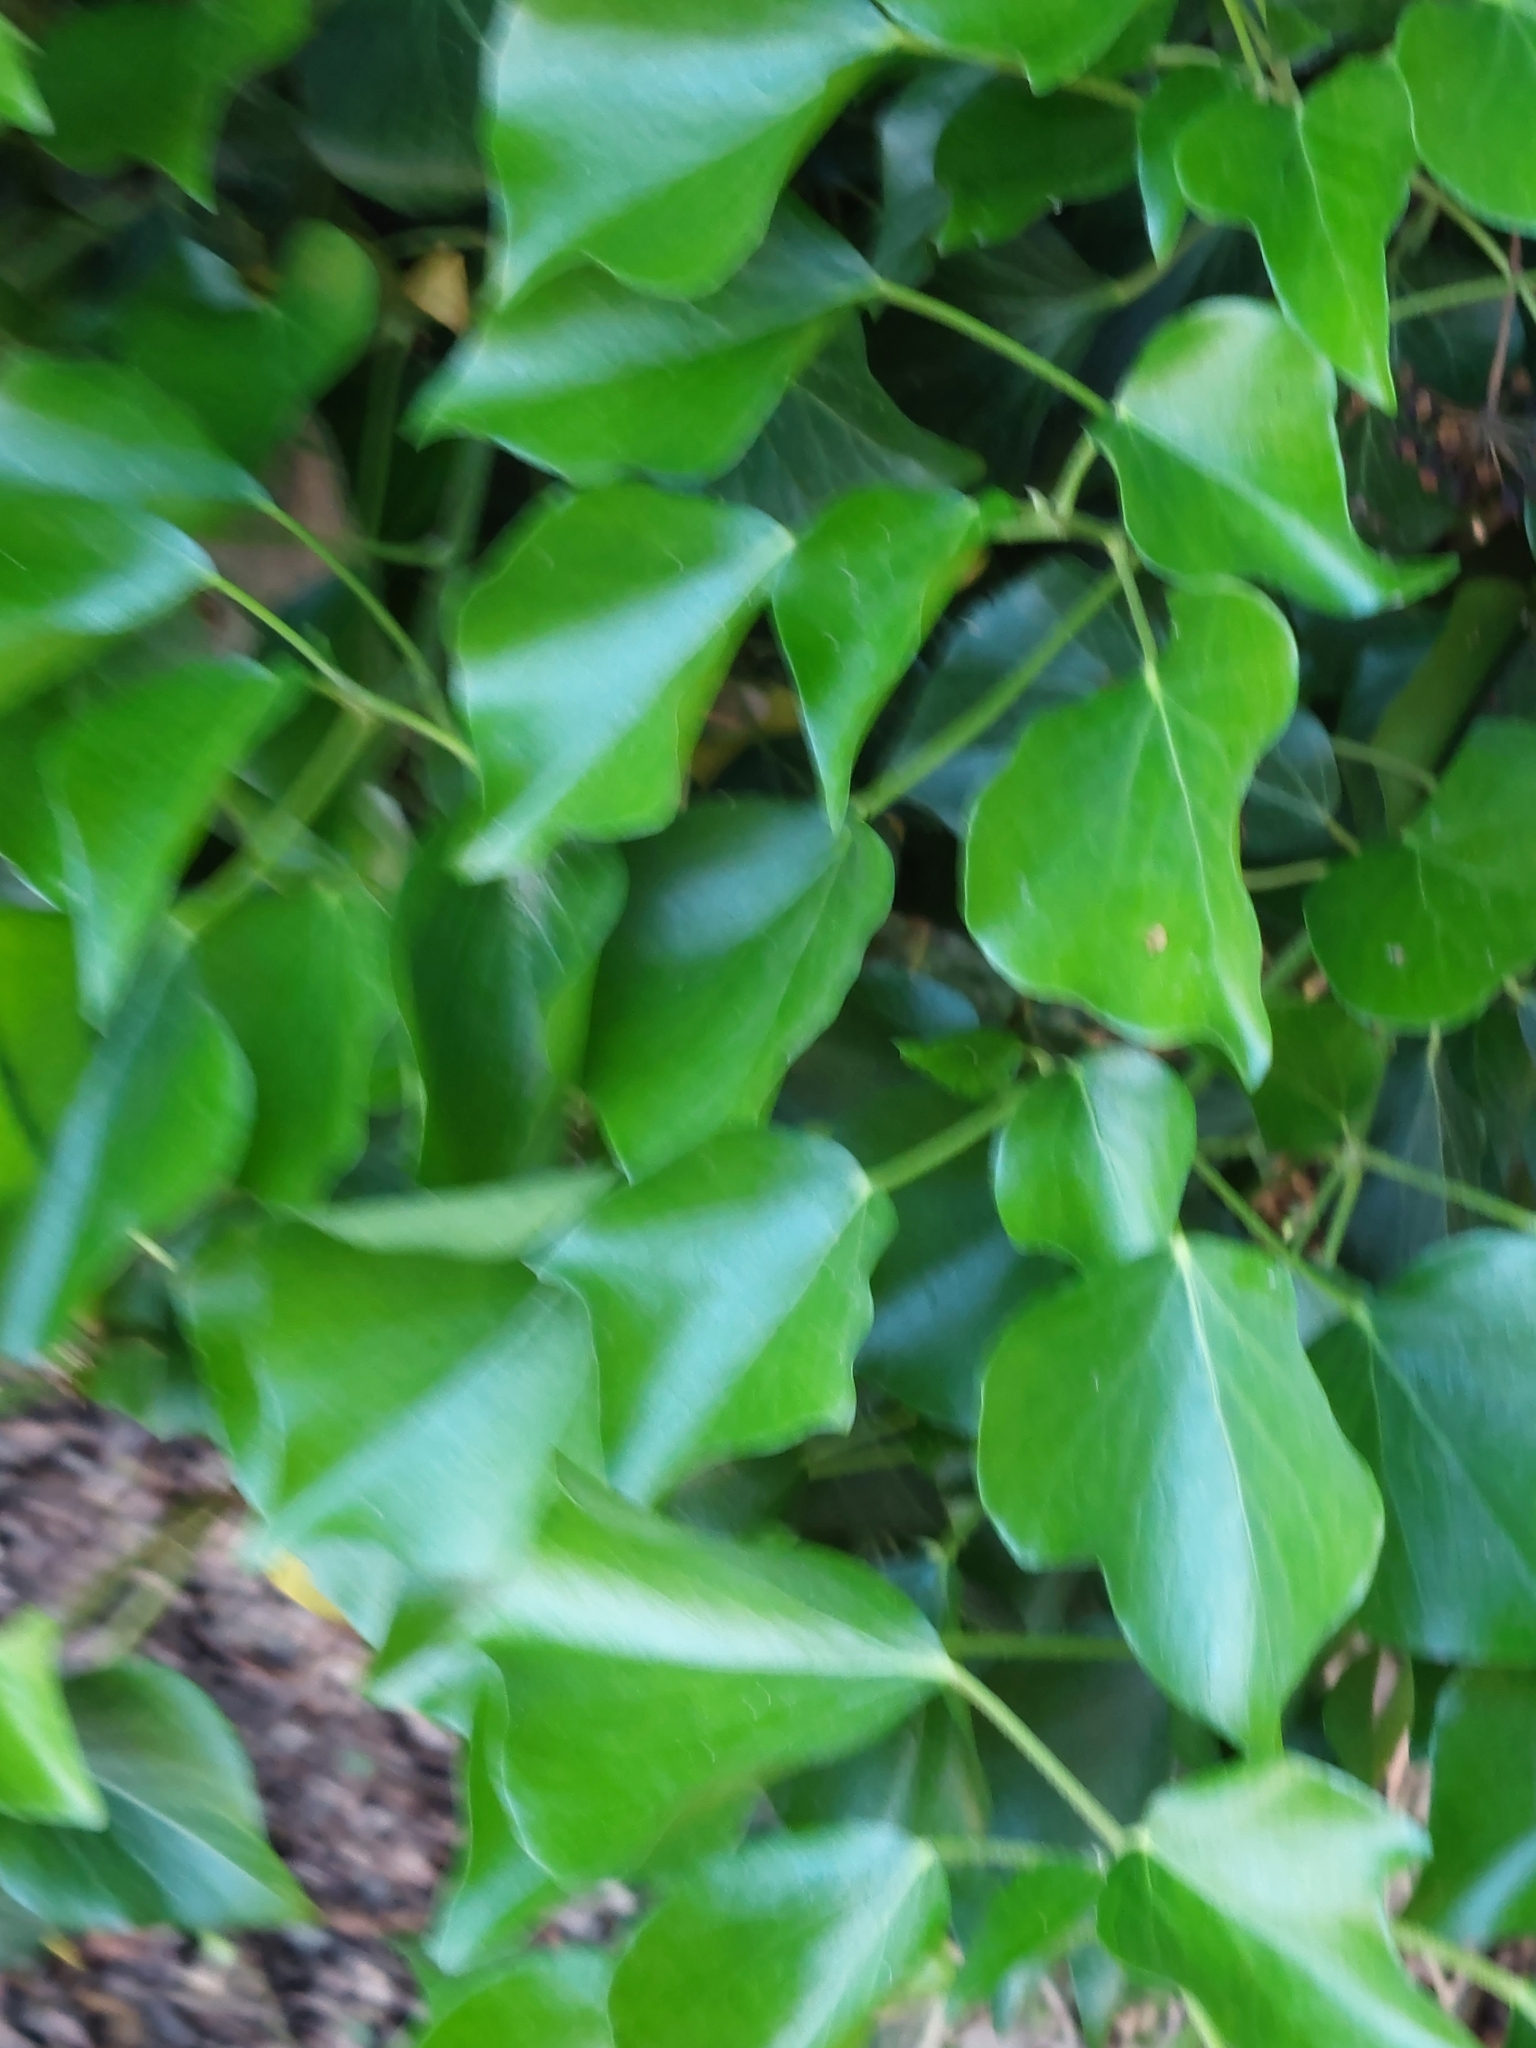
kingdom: Plantae
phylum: Tracheophyta
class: Magnoliopsida
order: Apiales
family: Araliaceae
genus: Hedera
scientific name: Hedera helix
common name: Ivy
